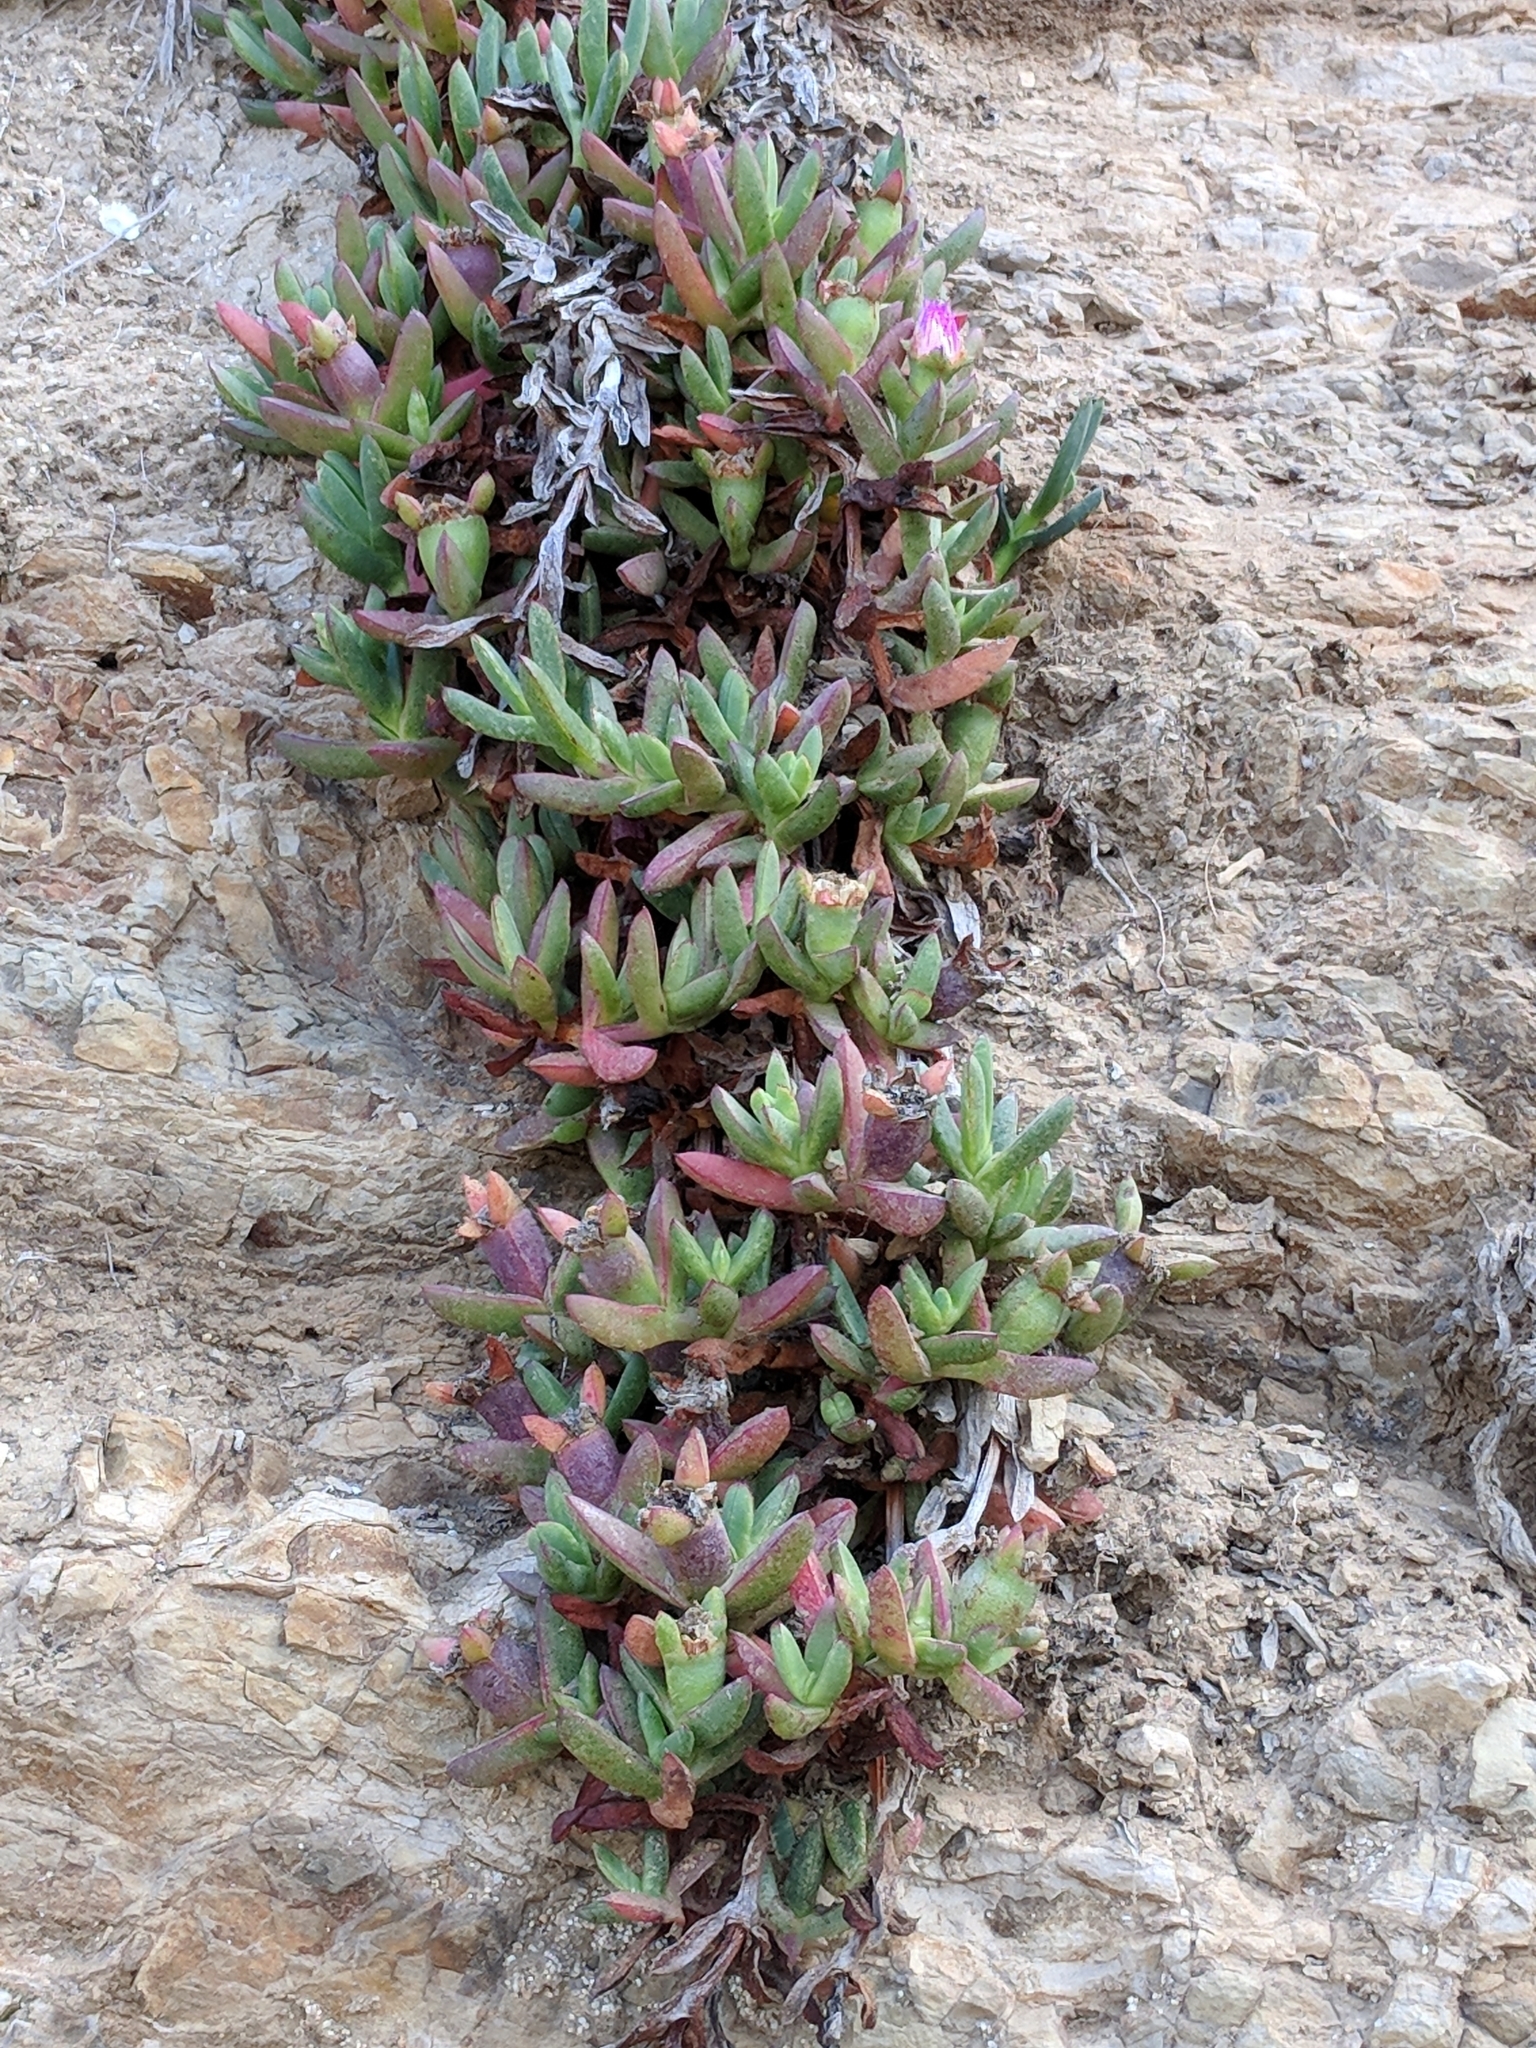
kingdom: Plantae
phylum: Tracheophyta
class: Magnoliopsida
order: Caryophyllales
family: Aizoaceae
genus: Carpobrotus
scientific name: Carpobrotus chilensis
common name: Sea fig
